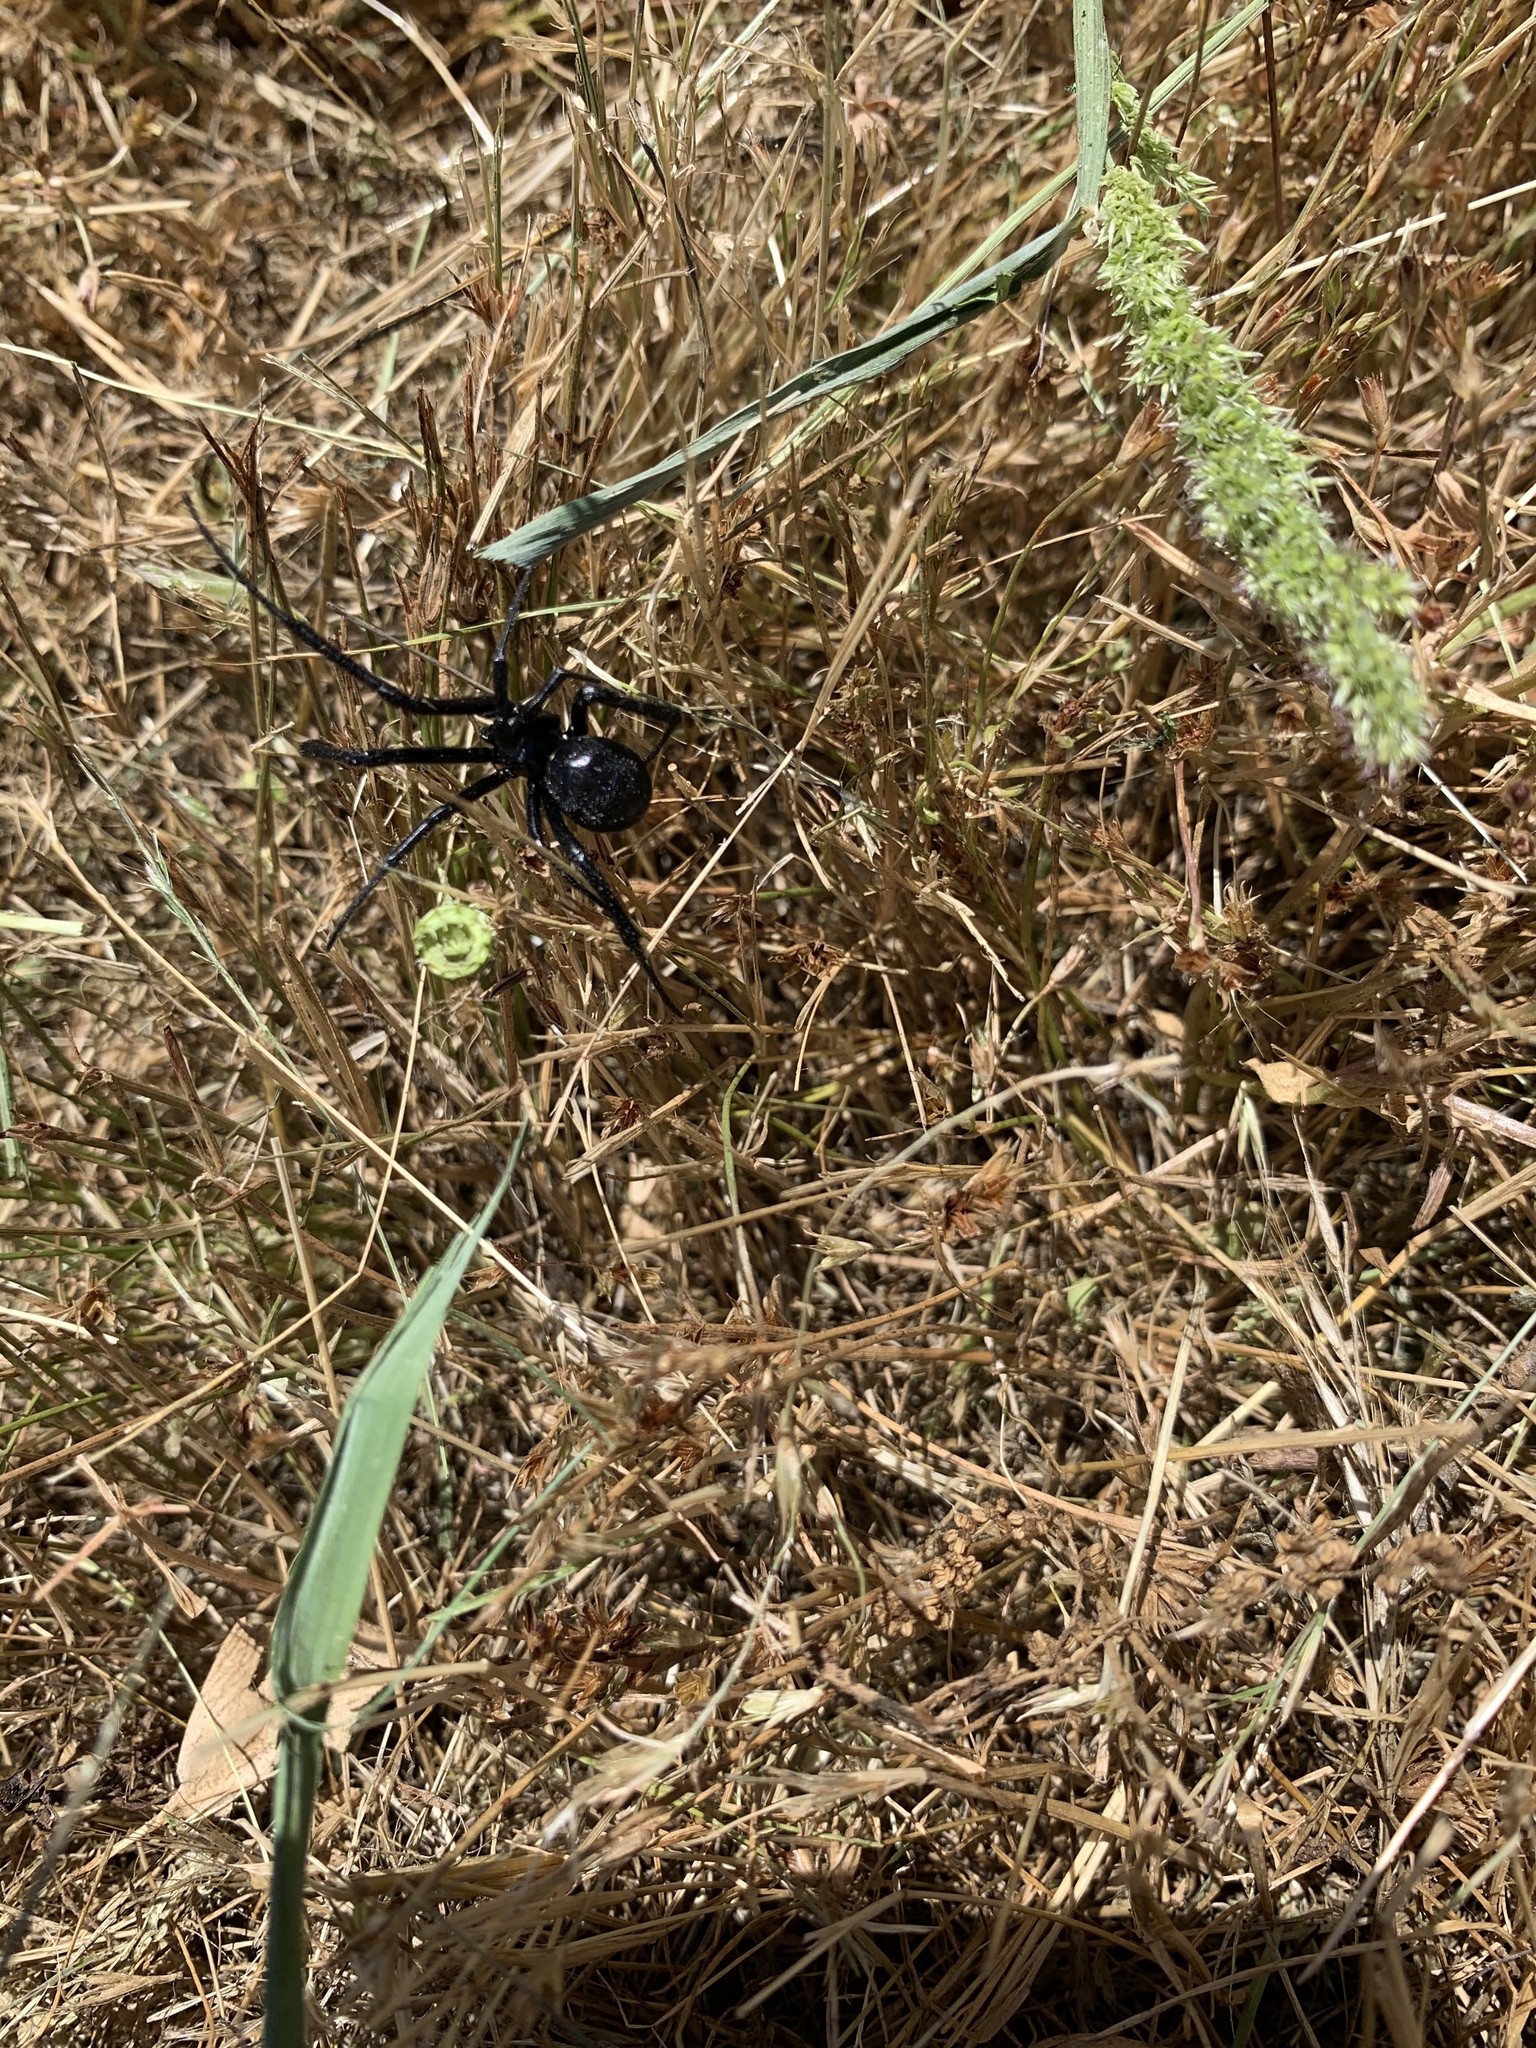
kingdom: Animalia
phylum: Arthropoda
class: Arachnida
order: Araneae
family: Theridiidae
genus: Latrodectus
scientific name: Latrodectus hesperus
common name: Western black widow
